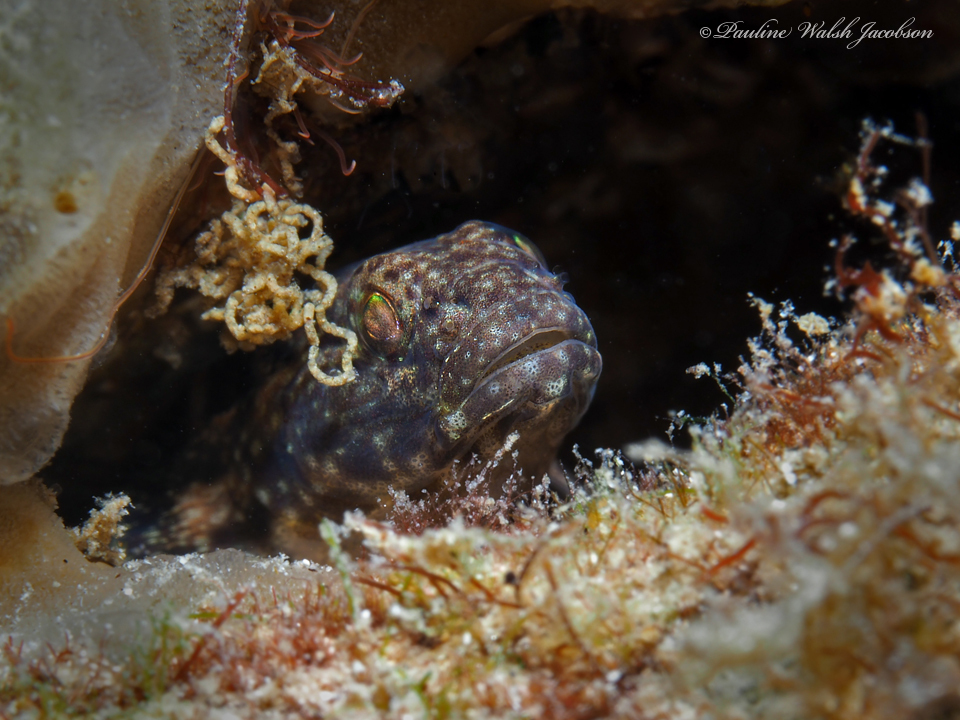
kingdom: Animalia
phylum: Chordata
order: Perciformes
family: Gobiidae
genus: Bathygobius
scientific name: Bathygobius
